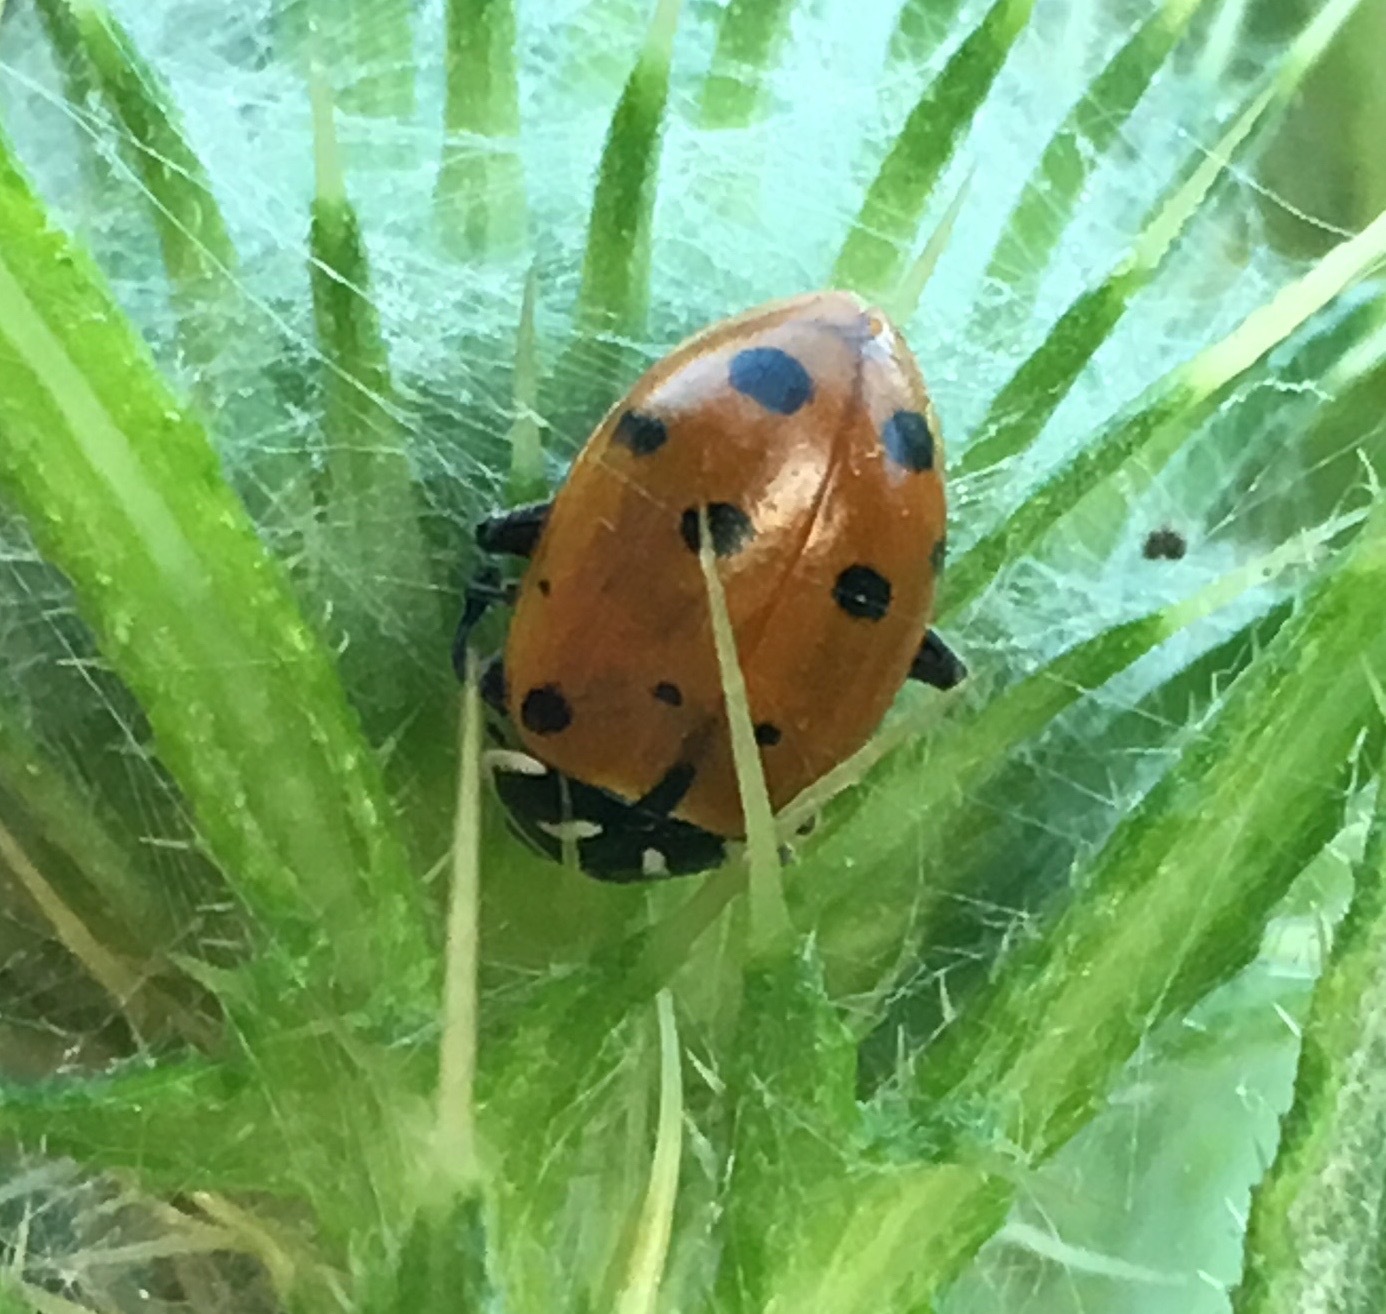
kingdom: Animalia
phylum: Arthropoda
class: Insecta
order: Coleoptera
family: Coccinellidae
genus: Hippodamia
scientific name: Hippodamia convergens
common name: Convergent lady beetle
